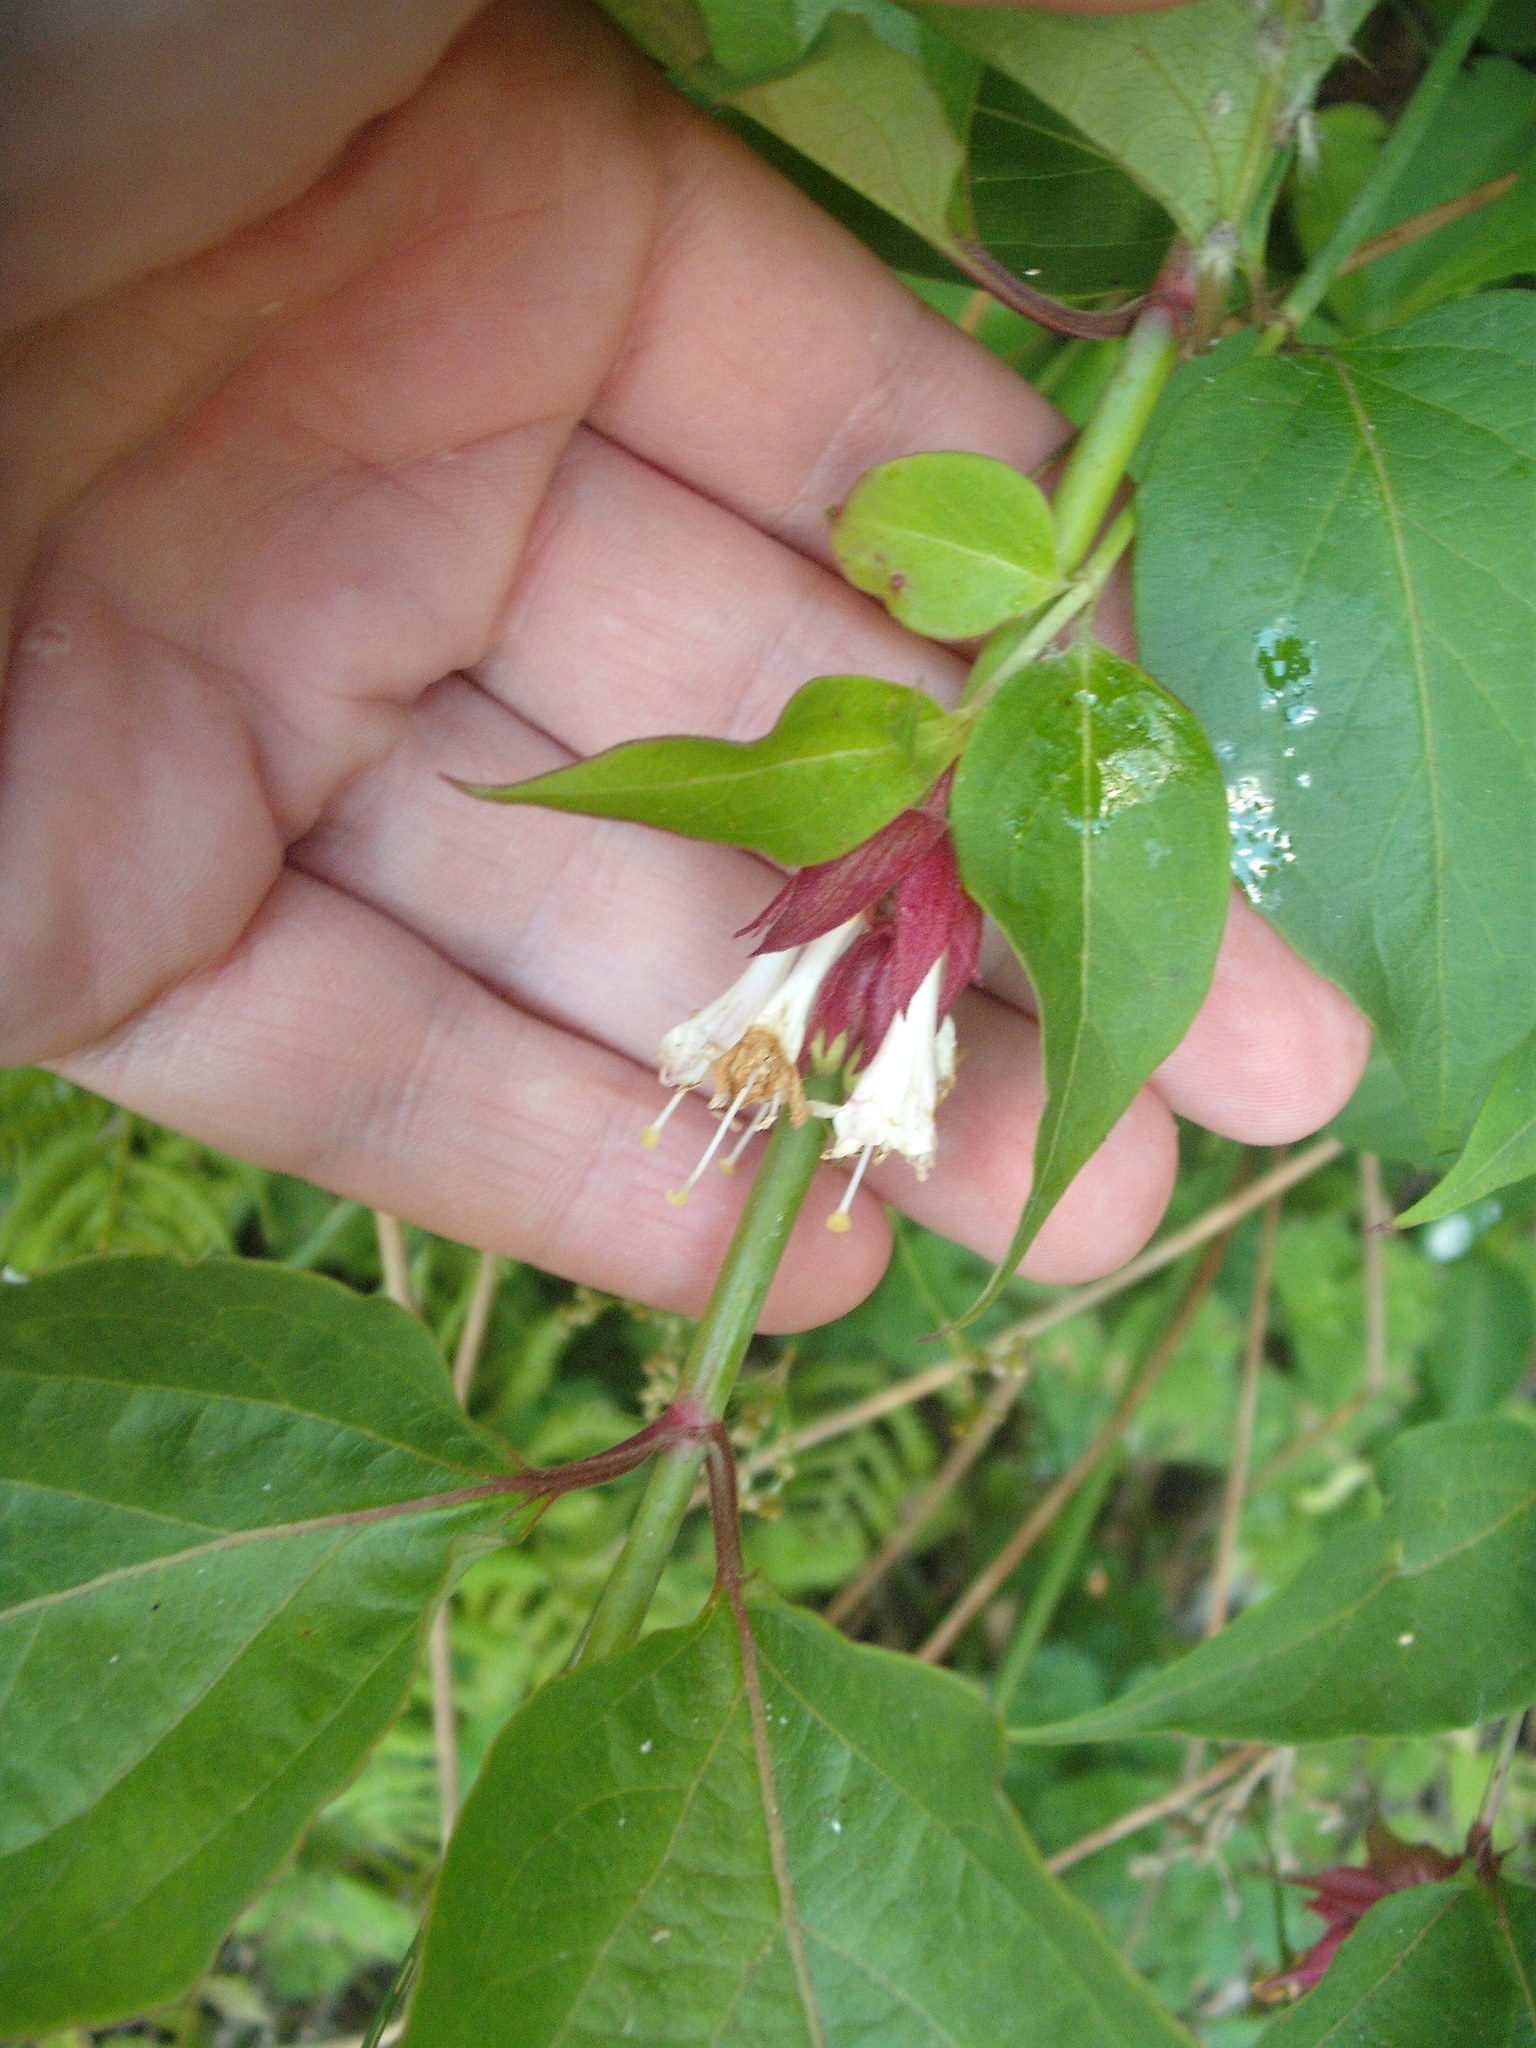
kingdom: Plantae
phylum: Tracheophyta
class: Magnoliopsida
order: Dipsacales
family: Caprifoliaceae
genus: Leycesteria
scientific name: Leycesteria formosa
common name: Himalayan honeysuckle
